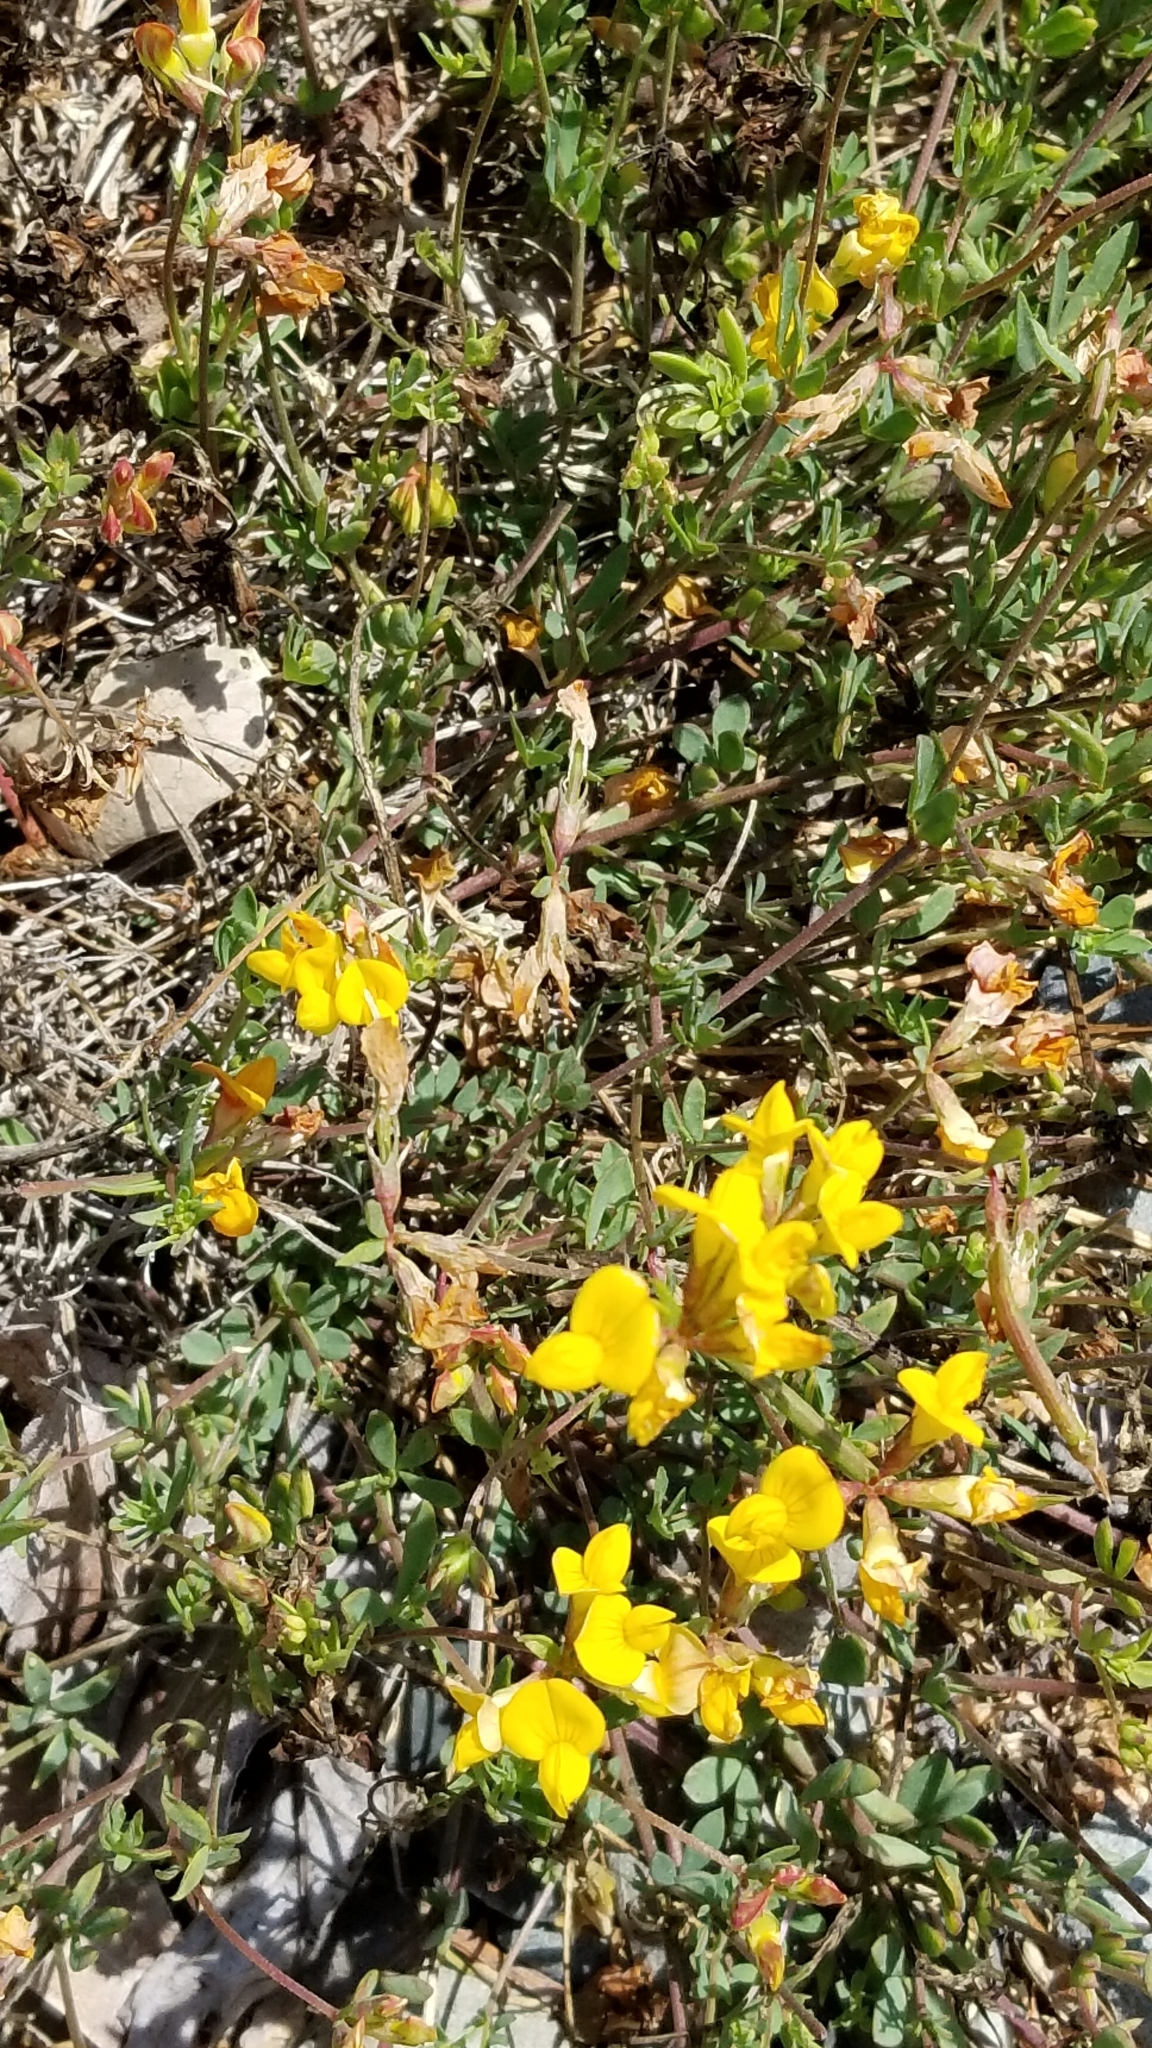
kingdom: Plantae
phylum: Tracheophyta
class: Magnoliopsida
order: Fabales
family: Fabaceae
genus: Lotus
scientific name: Lotus corniculatus
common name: Common bird's-foot-trefoil
